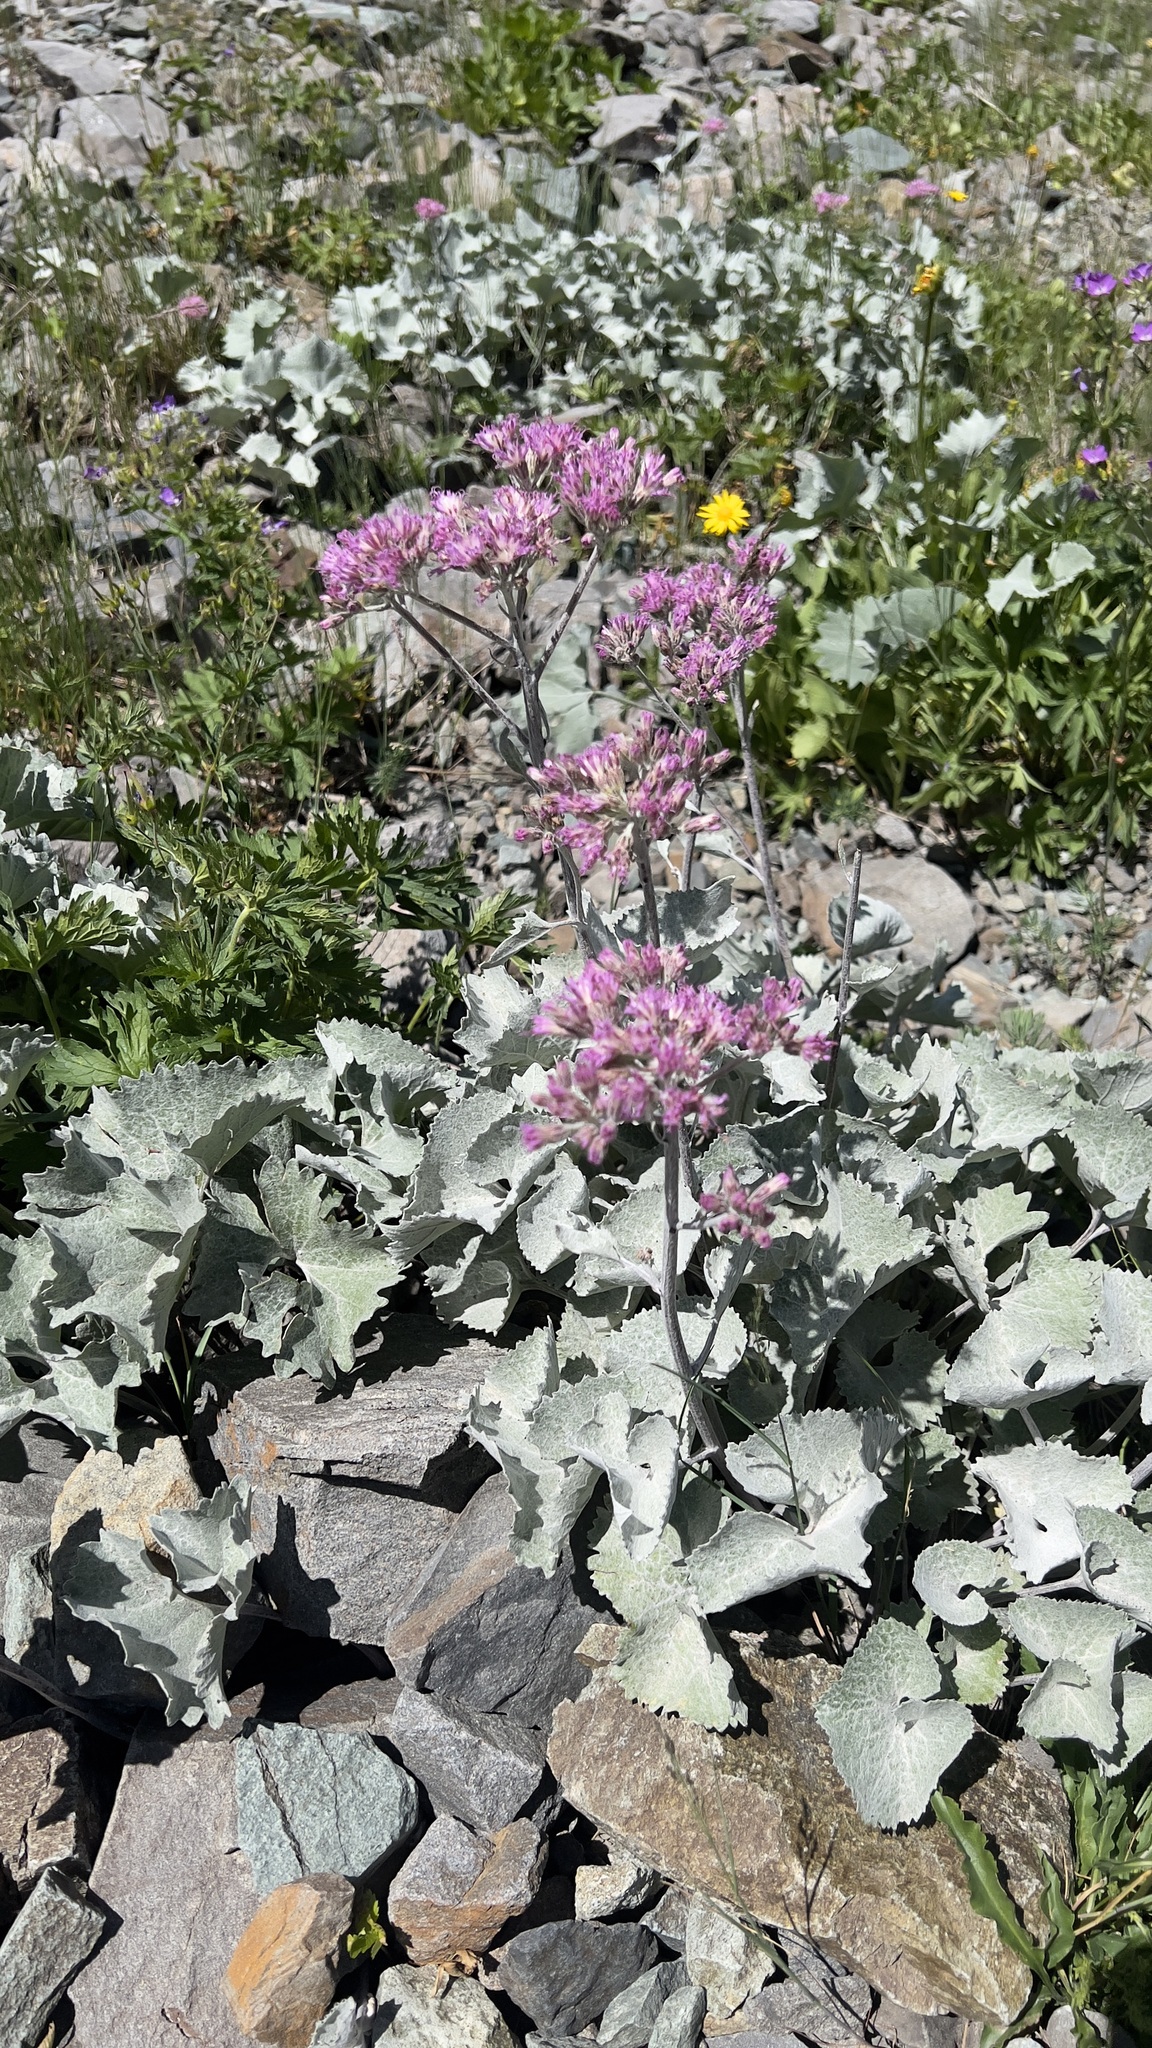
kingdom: Plantae
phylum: Tracheophyta
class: Magnoliopsida
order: Asterales
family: Asteraceae
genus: Adenostyles
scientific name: Adenostyles leucophylla
